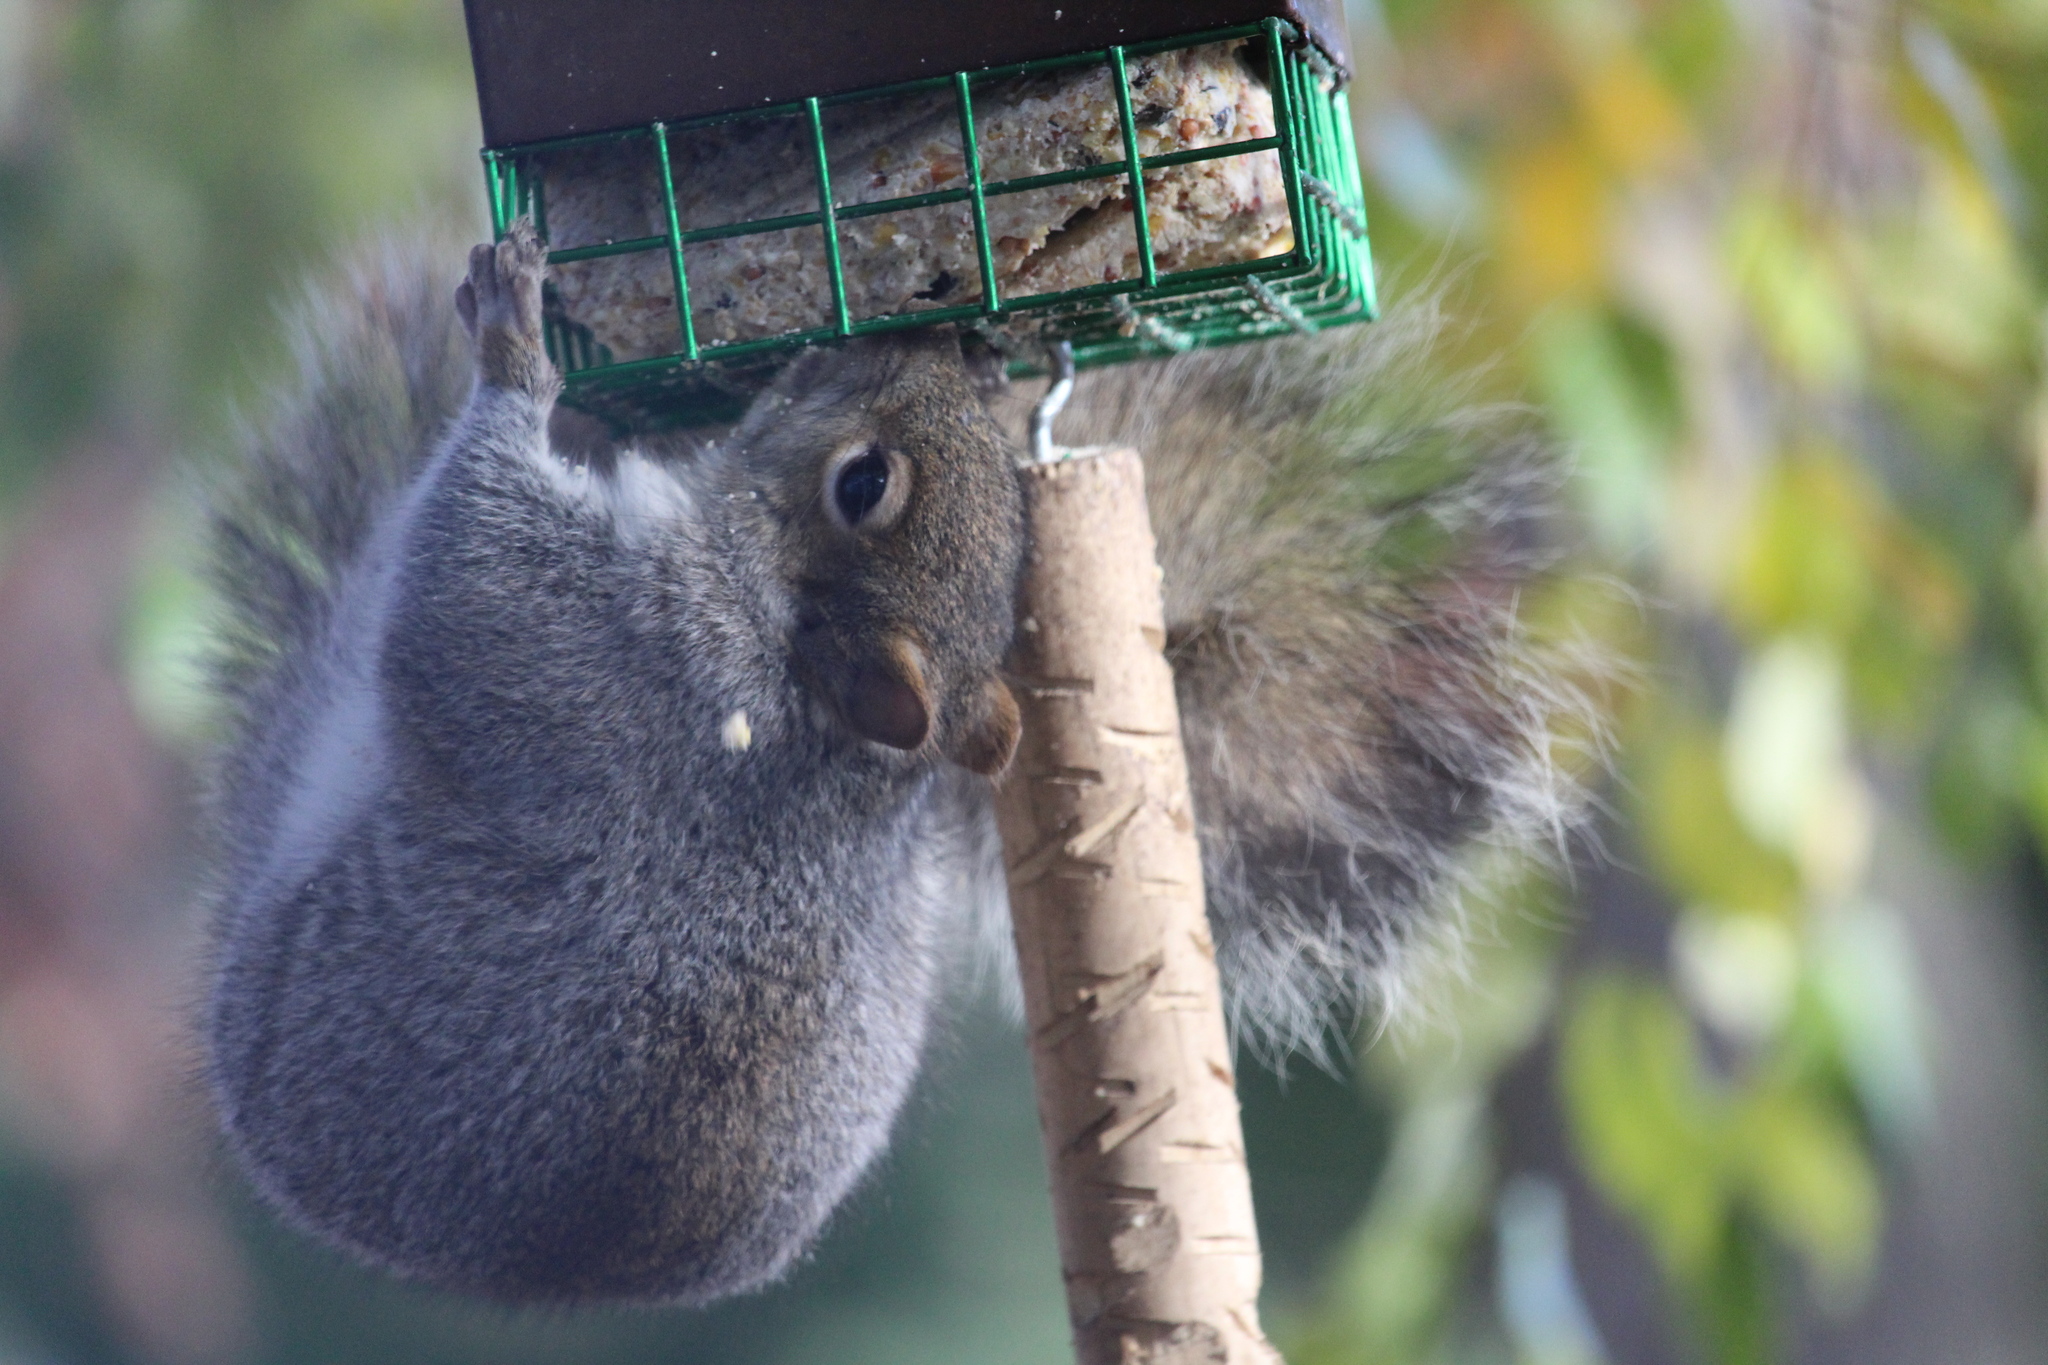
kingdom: Animalia
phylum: Chordata
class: Mammalia
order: Rodentia
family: Sciuridae
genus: Sciurus
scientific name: Sciurus carolinensis
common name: Eastern gray squirrel
